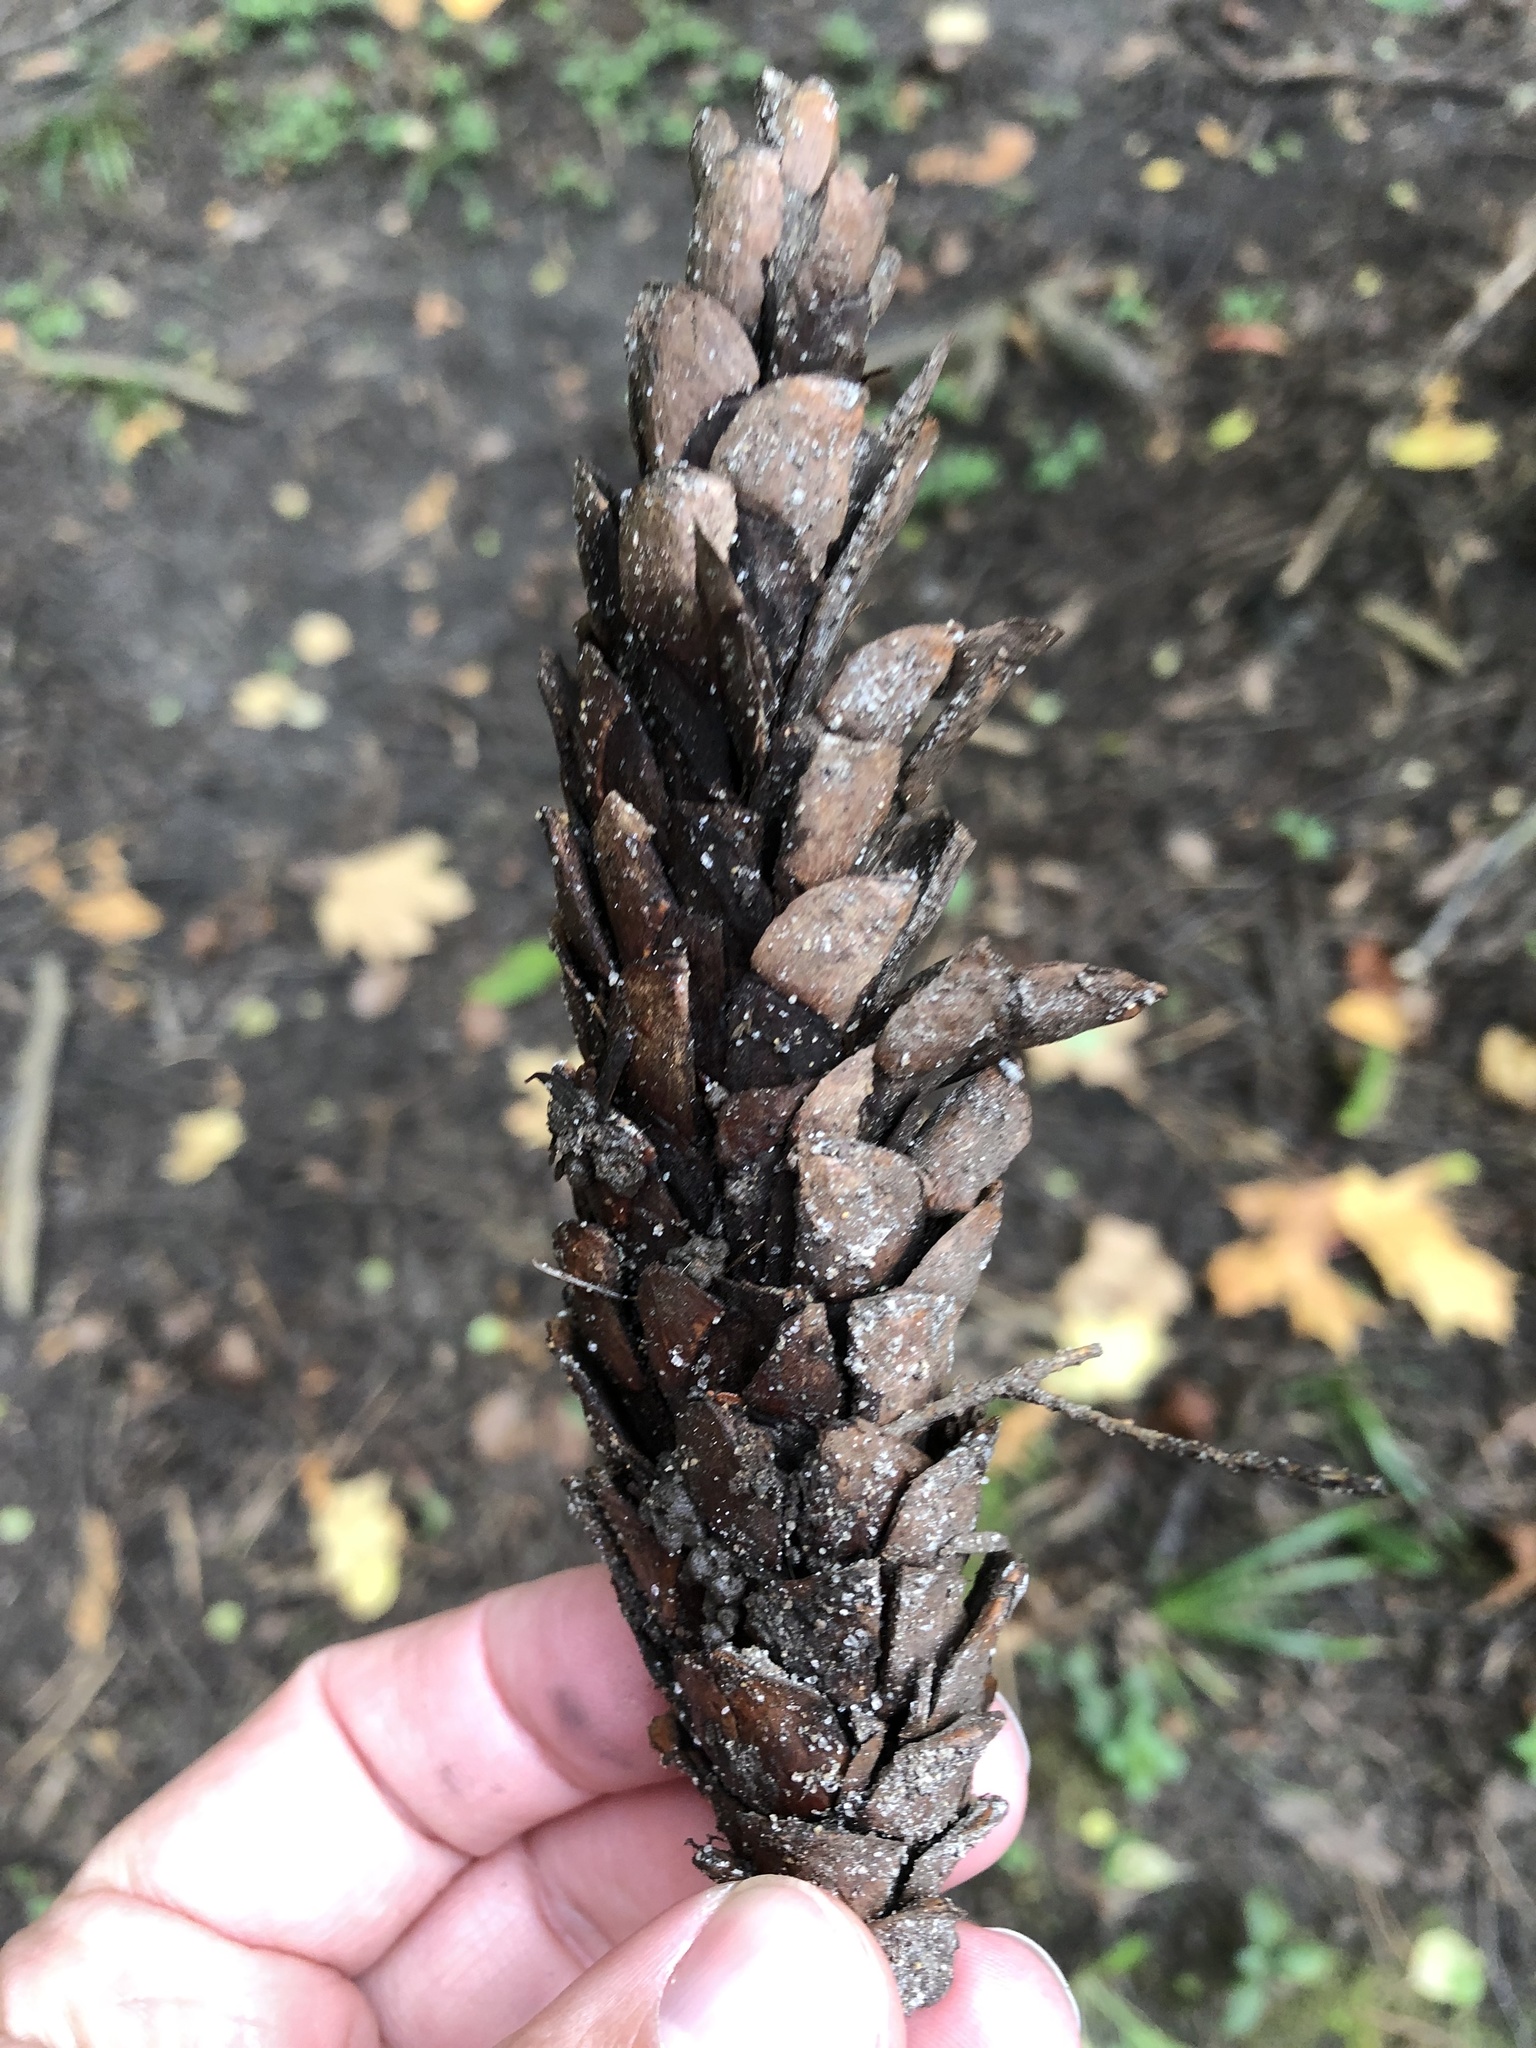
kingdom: Plantae
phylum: Tracheophyta
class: Pinopsida
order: Pinales
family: Pinaceae
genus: Pinus
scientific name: Pinus strobus
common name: Weymouth pine
